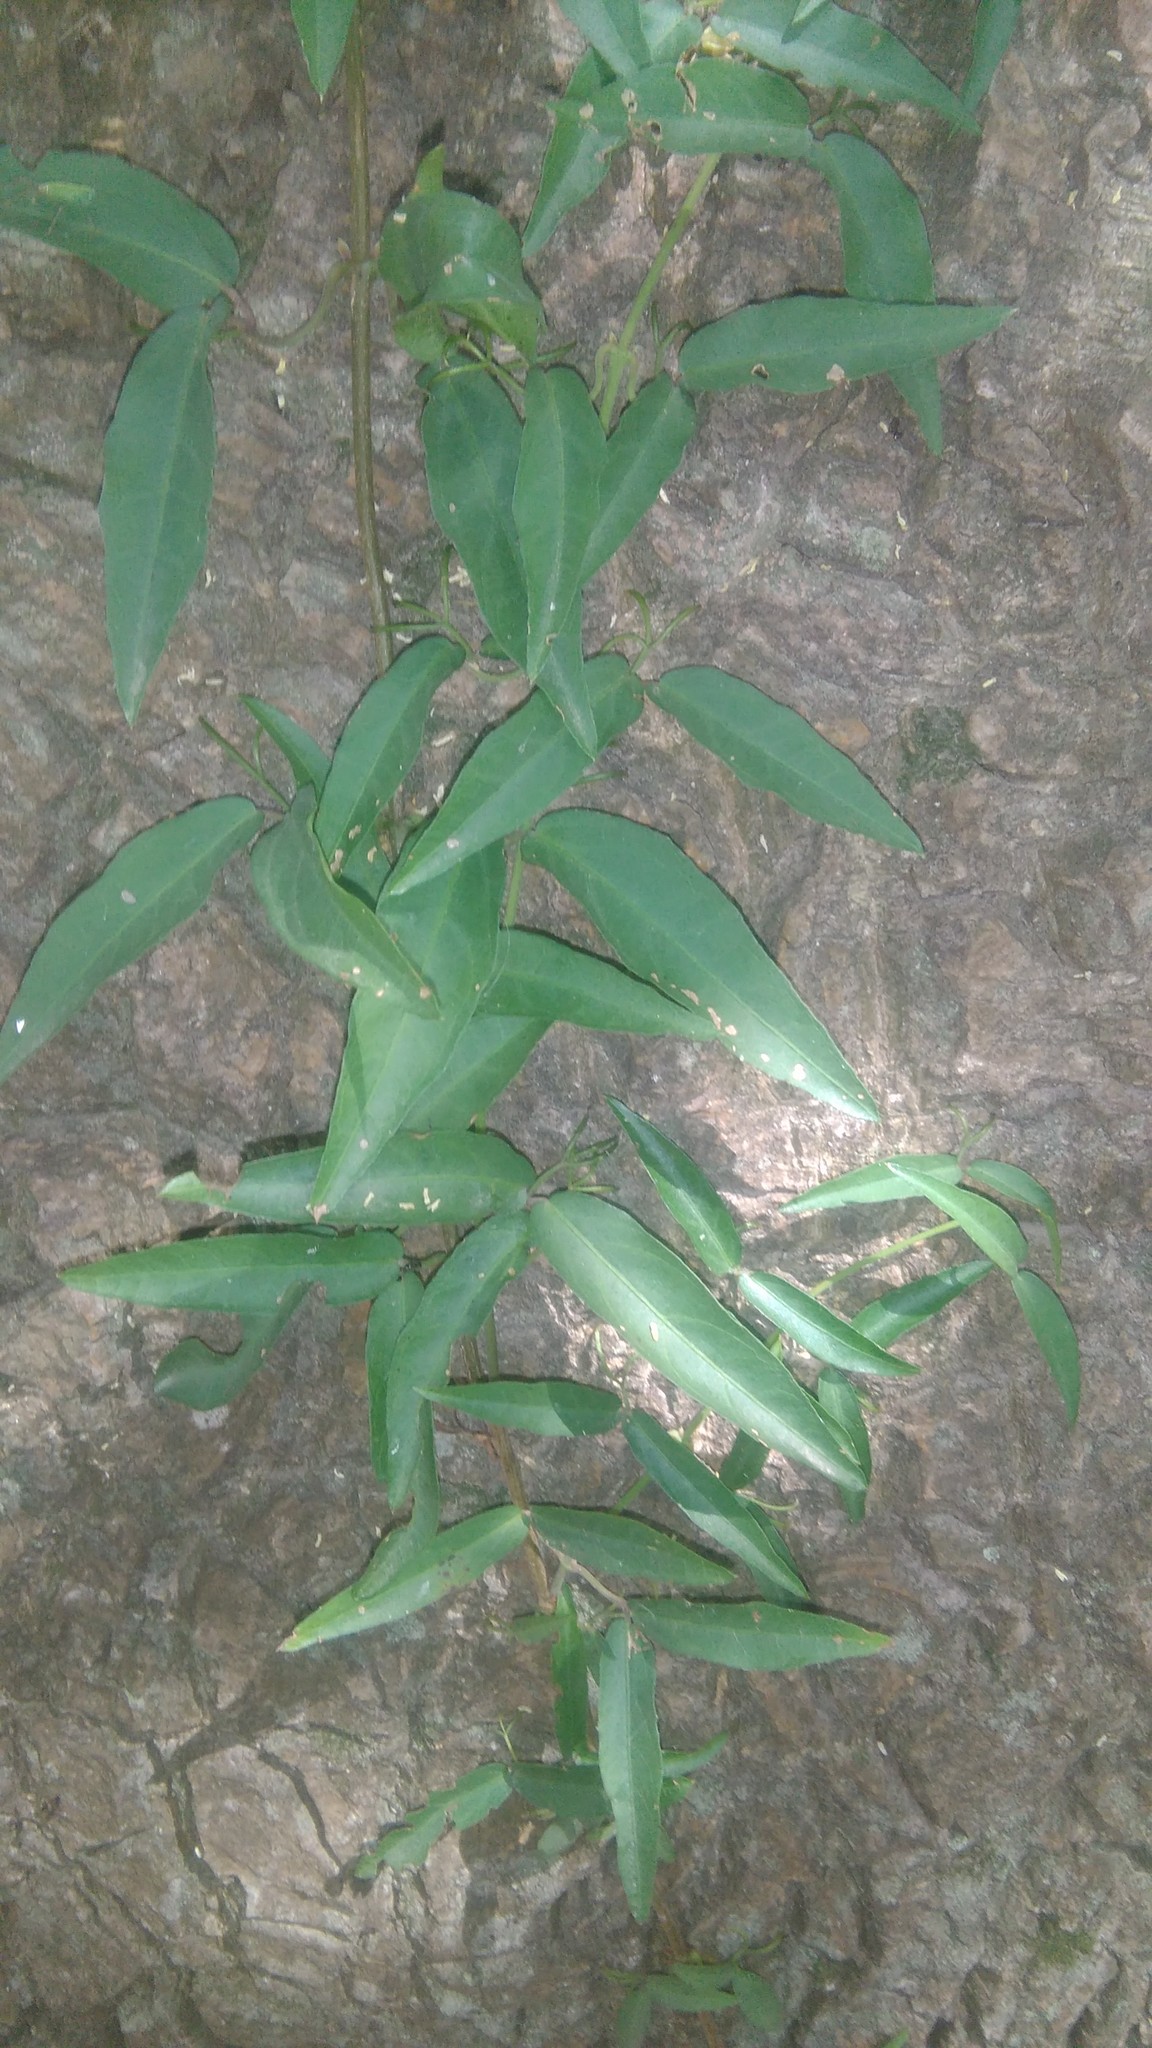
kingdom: Plantae
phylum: Tracheophyta
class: Magnoliopsida
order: Lamiales
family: Bignoniaceae
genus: Dolichandra
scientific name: Dolichandra unguis-cati
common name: Catclaw vine
